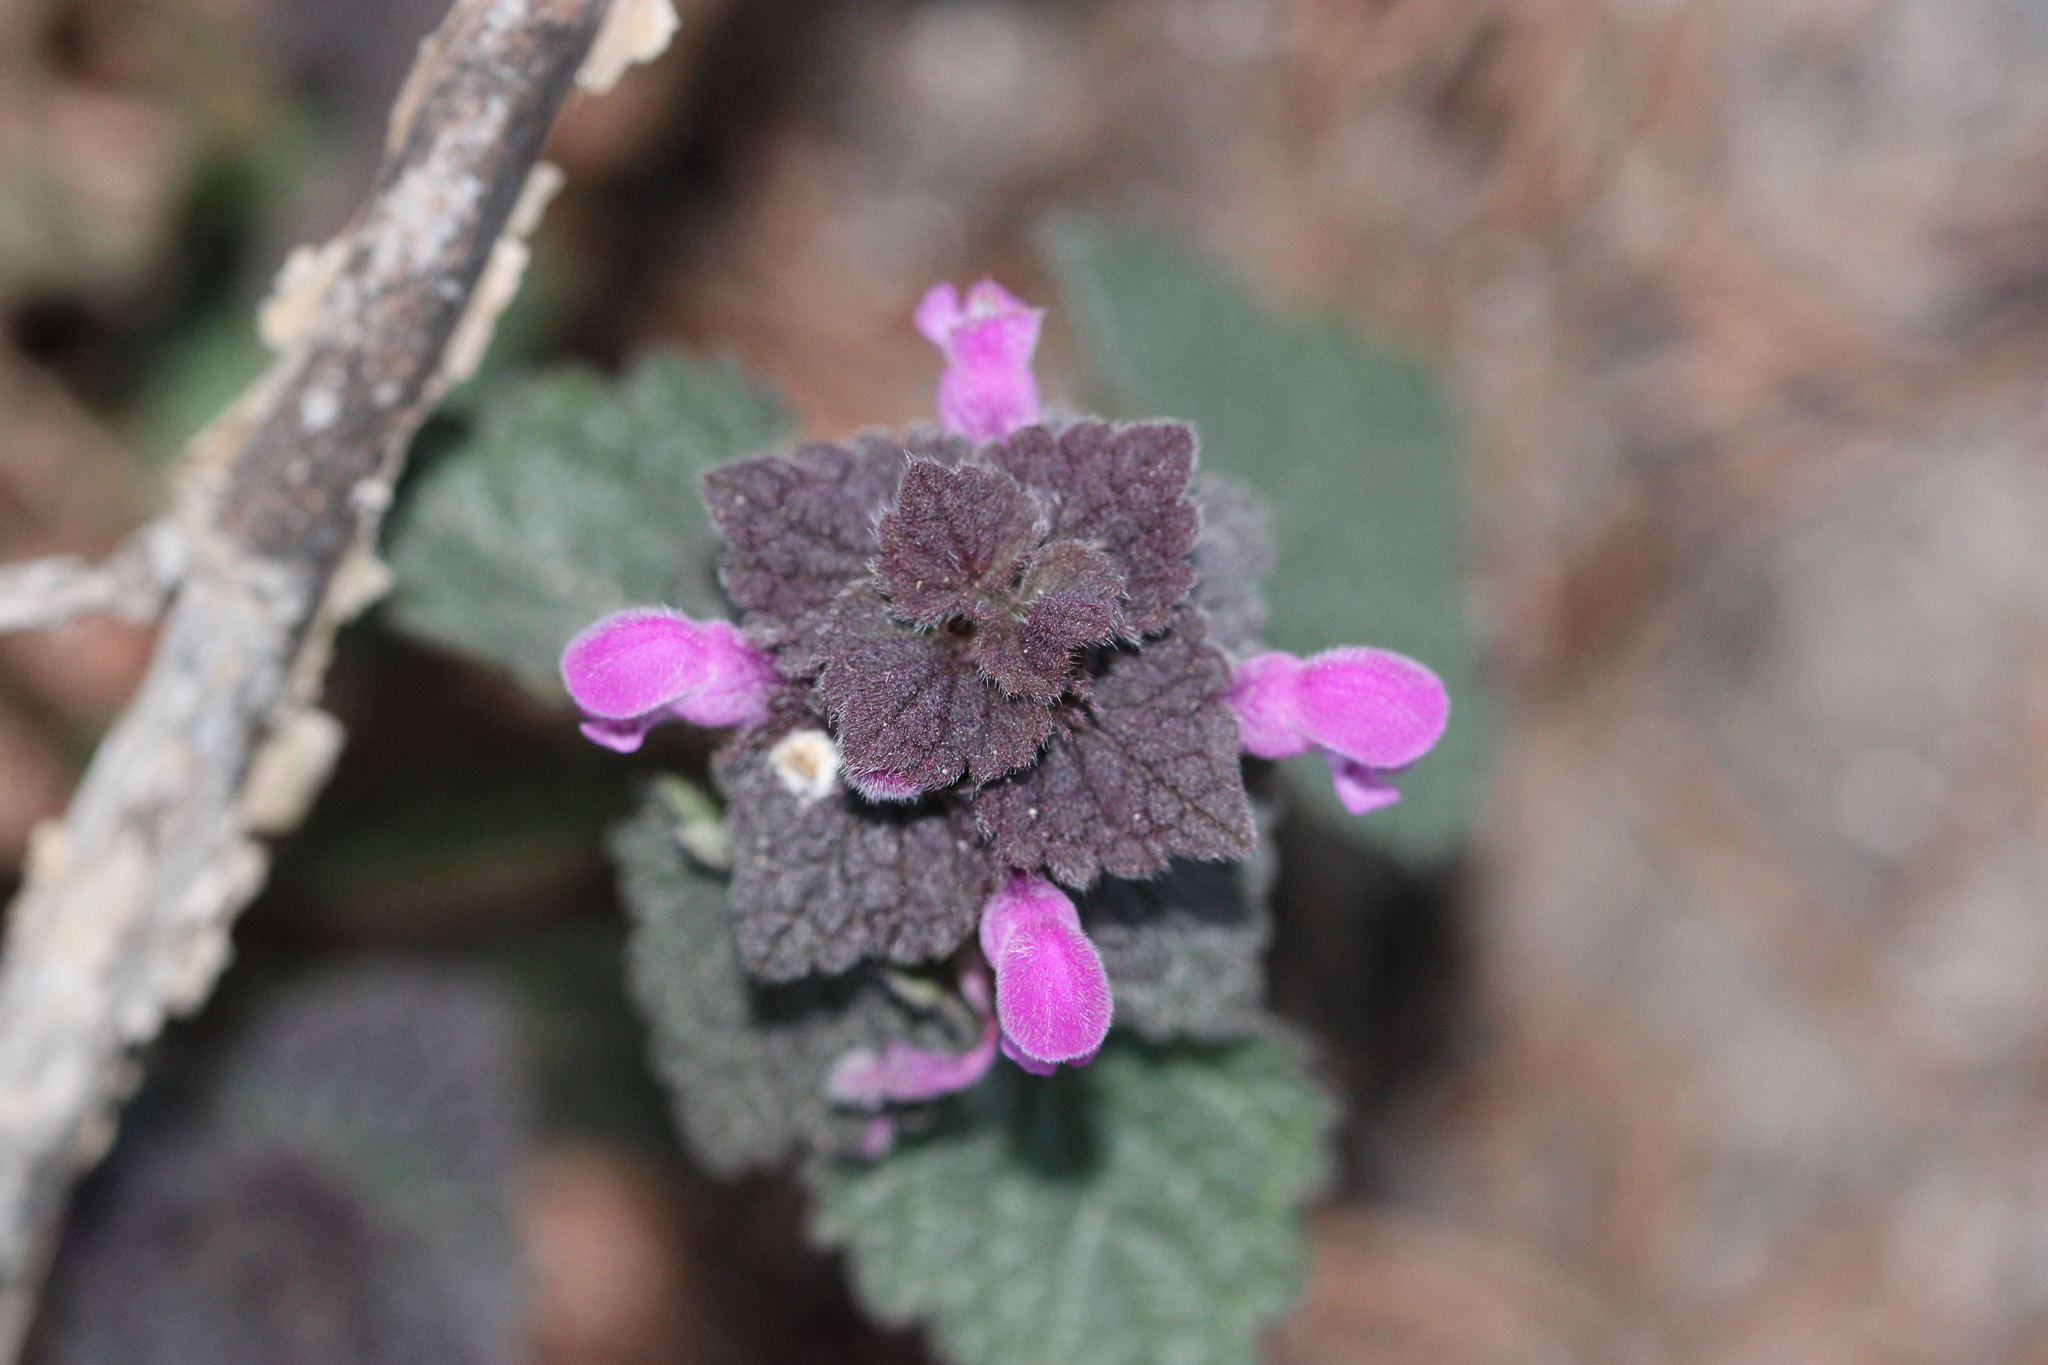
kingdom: Plantae
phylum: Tracheophyta
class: Magnoliopsida
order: Lamiales
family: Lamiaceae
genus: Lamium
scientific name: Lamium purpureum
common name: Red dead-nettle
